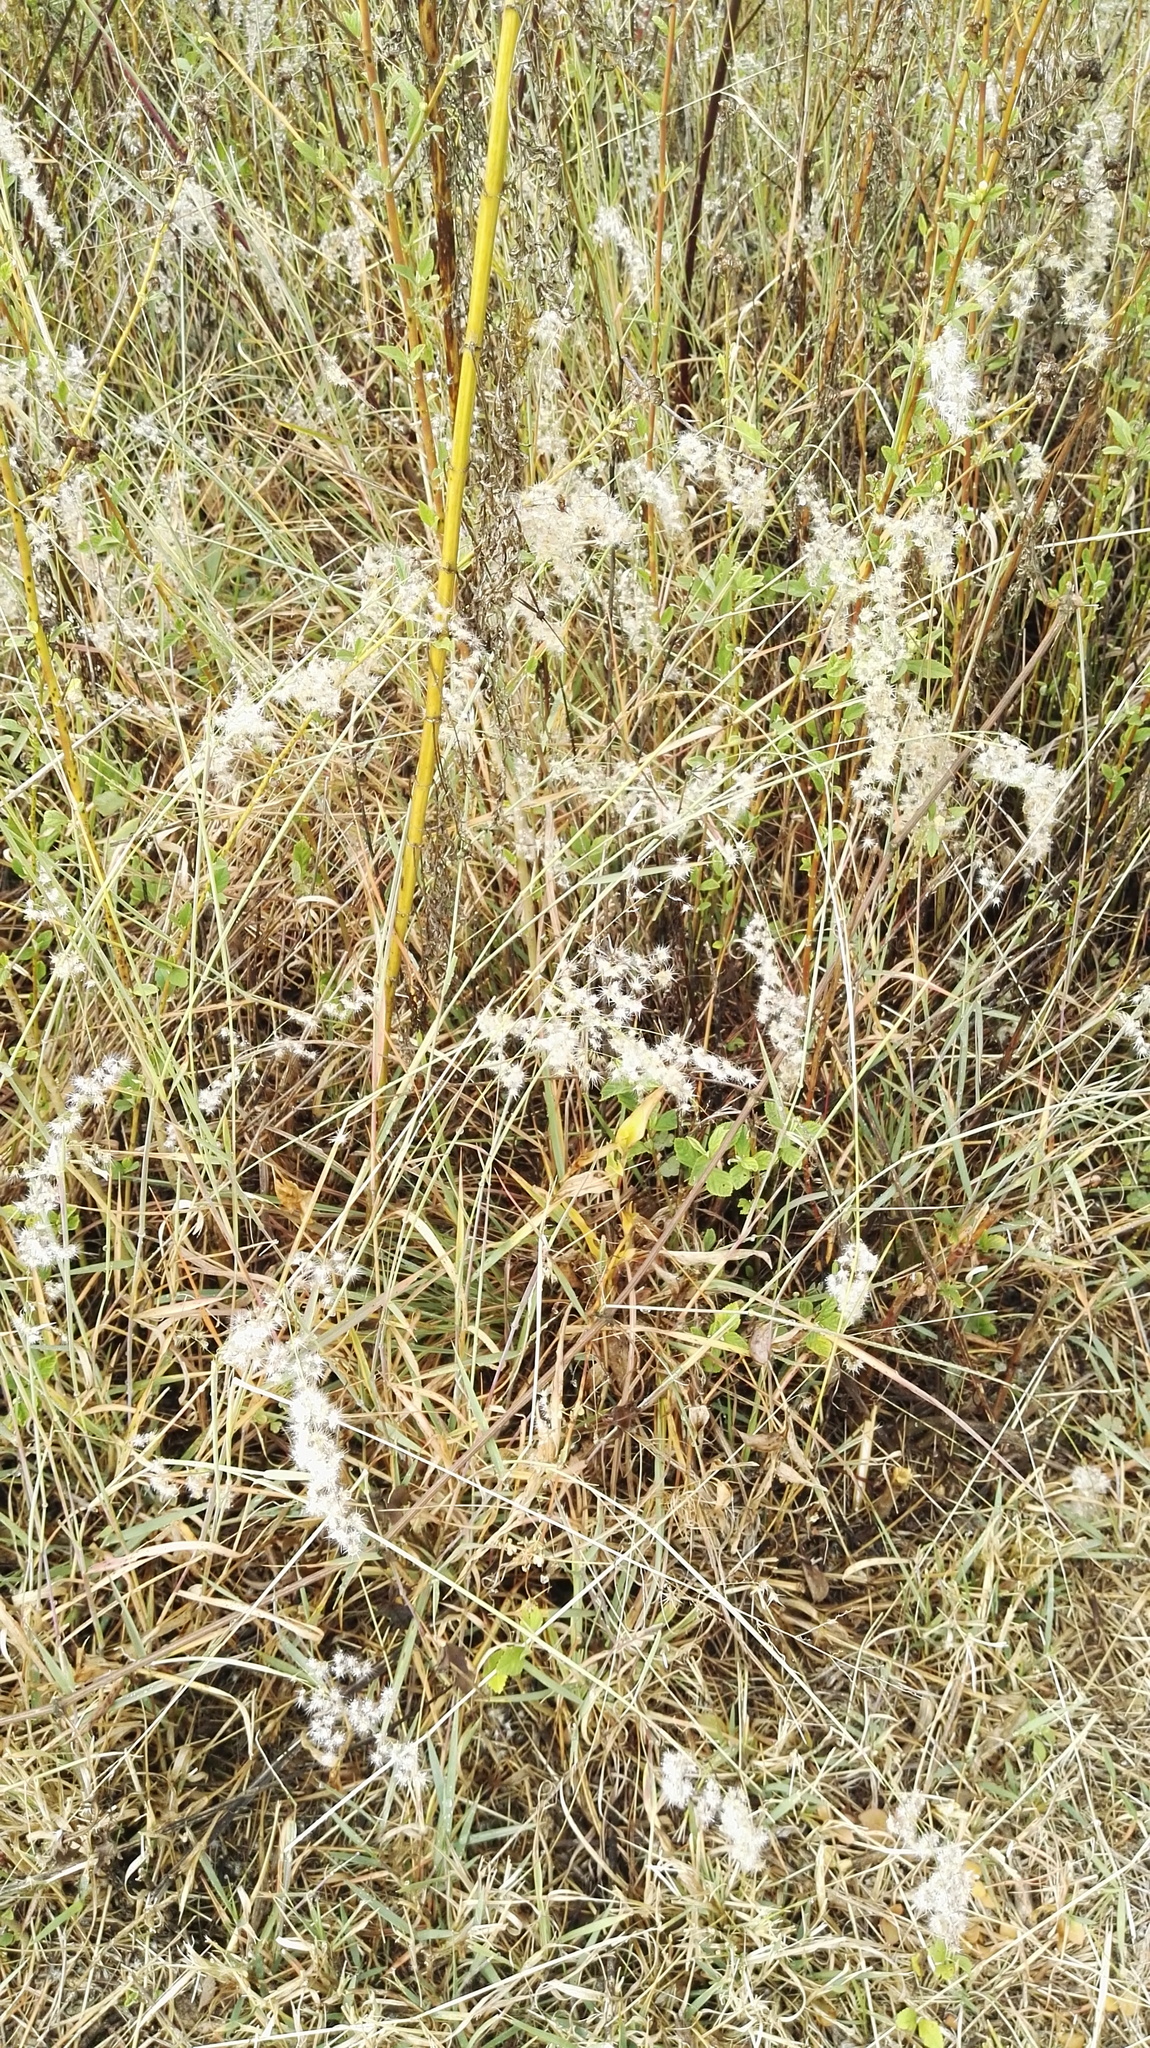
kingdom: Plantae
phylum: Tracheophyta
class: Liliopsida
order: Poales
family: Poaceae
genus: Melinis
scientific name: Melinis repens
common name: Rose natal grass
